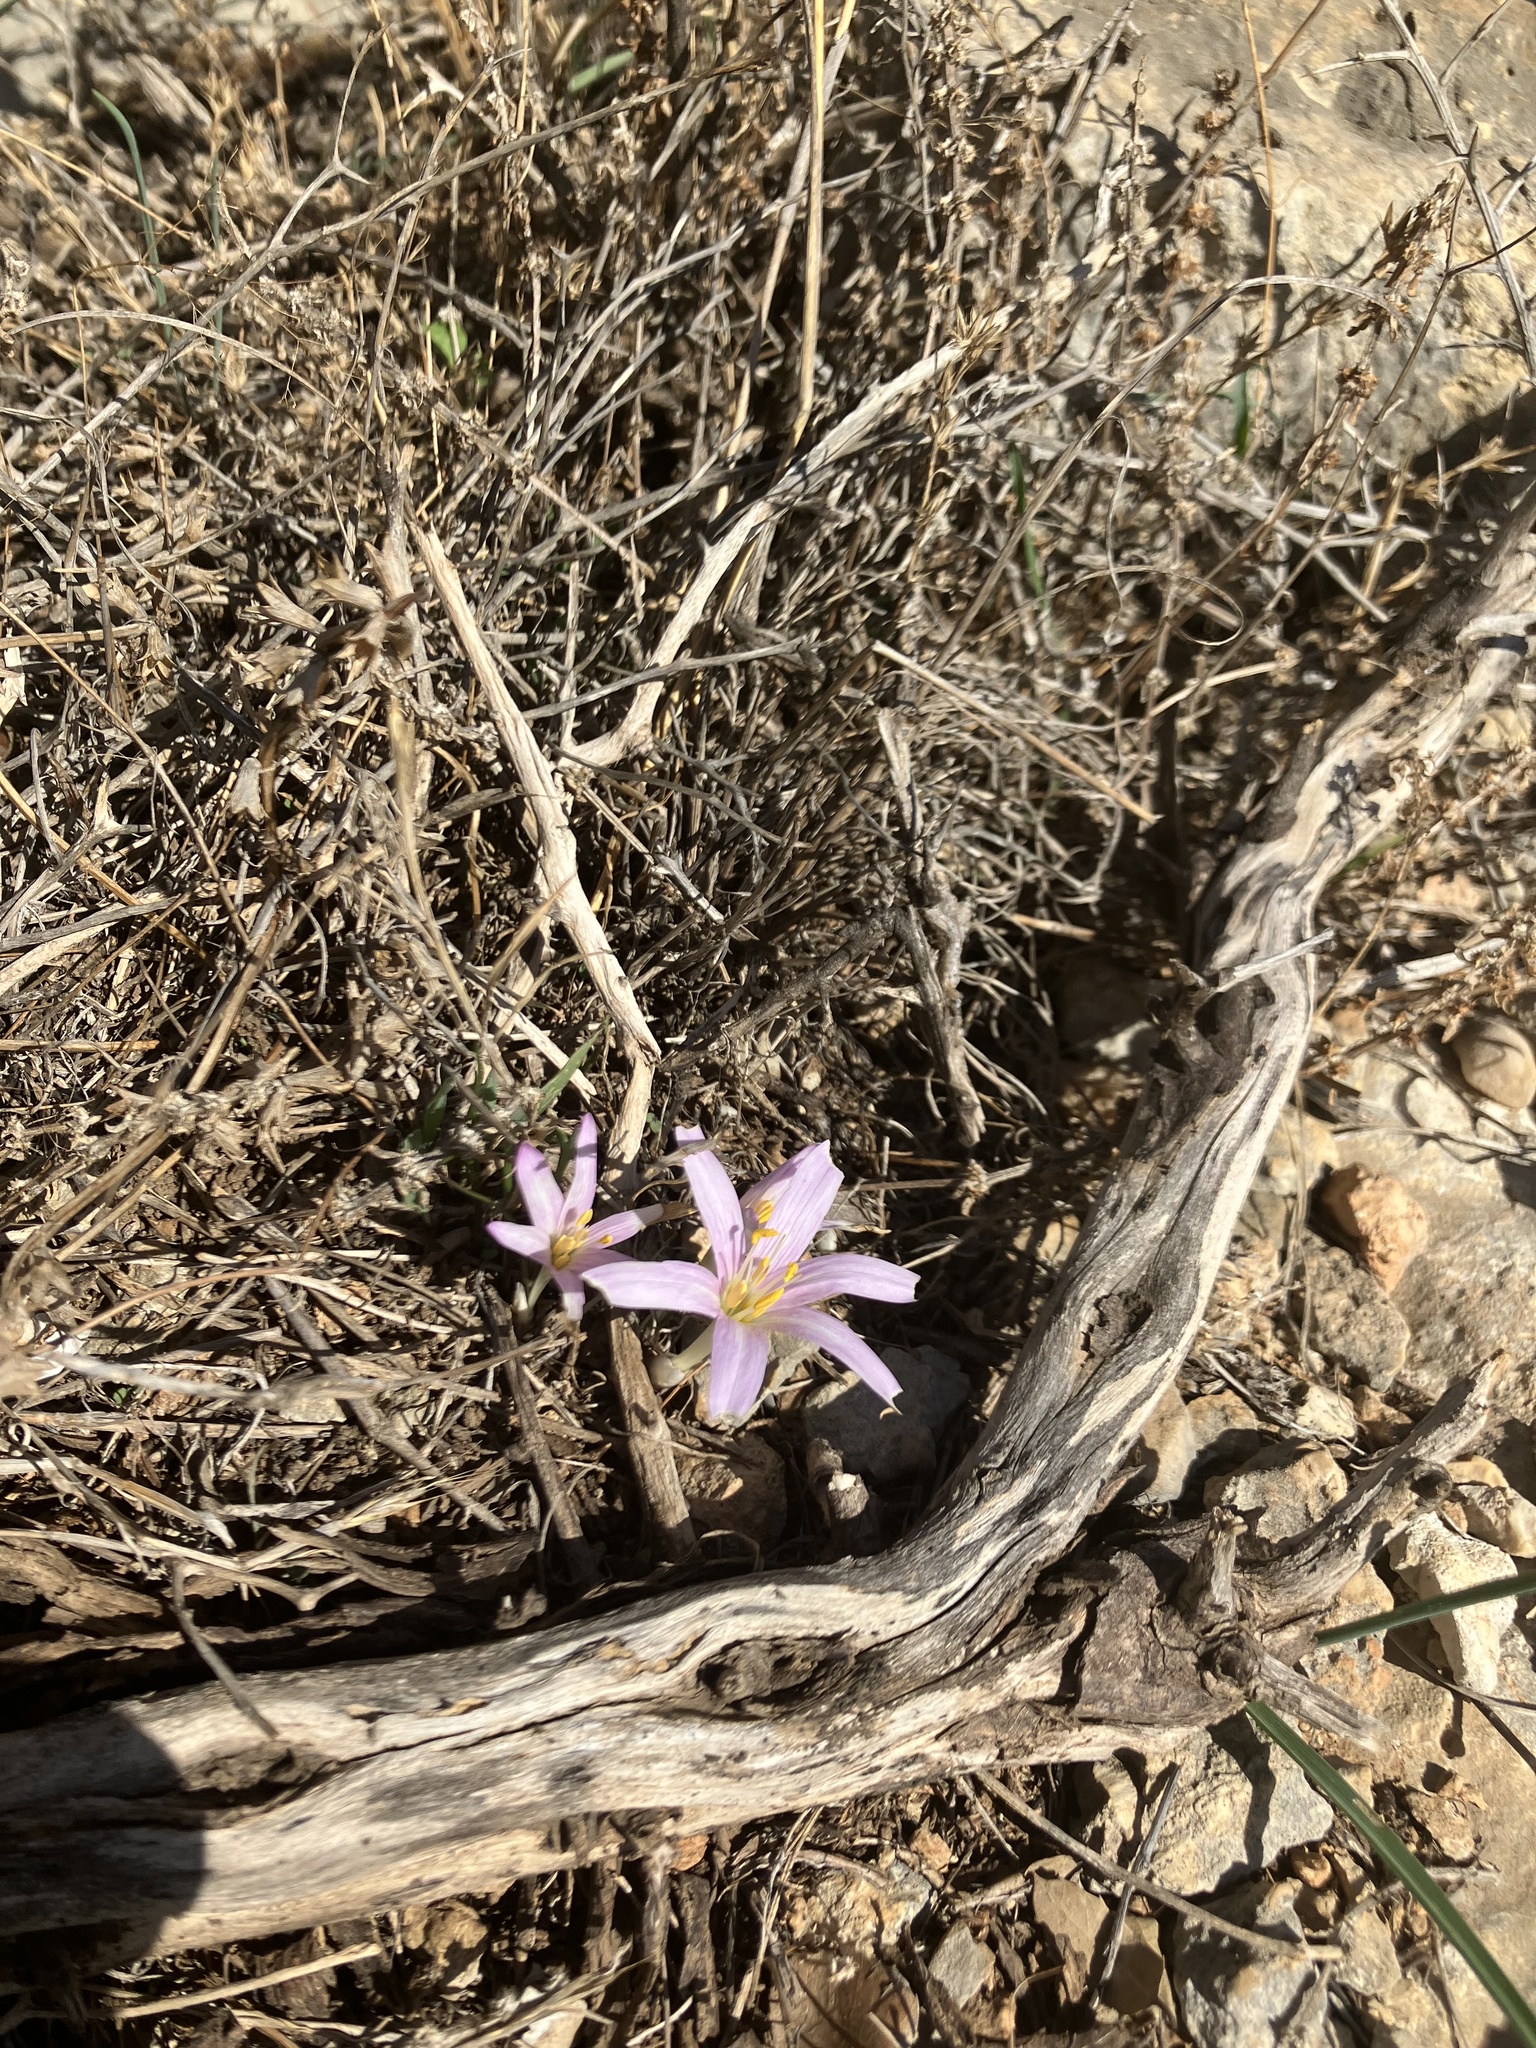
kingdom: Plantae
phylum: Tracheophyta
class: Liliopsida
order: Liliales
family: Colchicaceae
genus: Colchicum
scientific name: Colchicum stevenii
